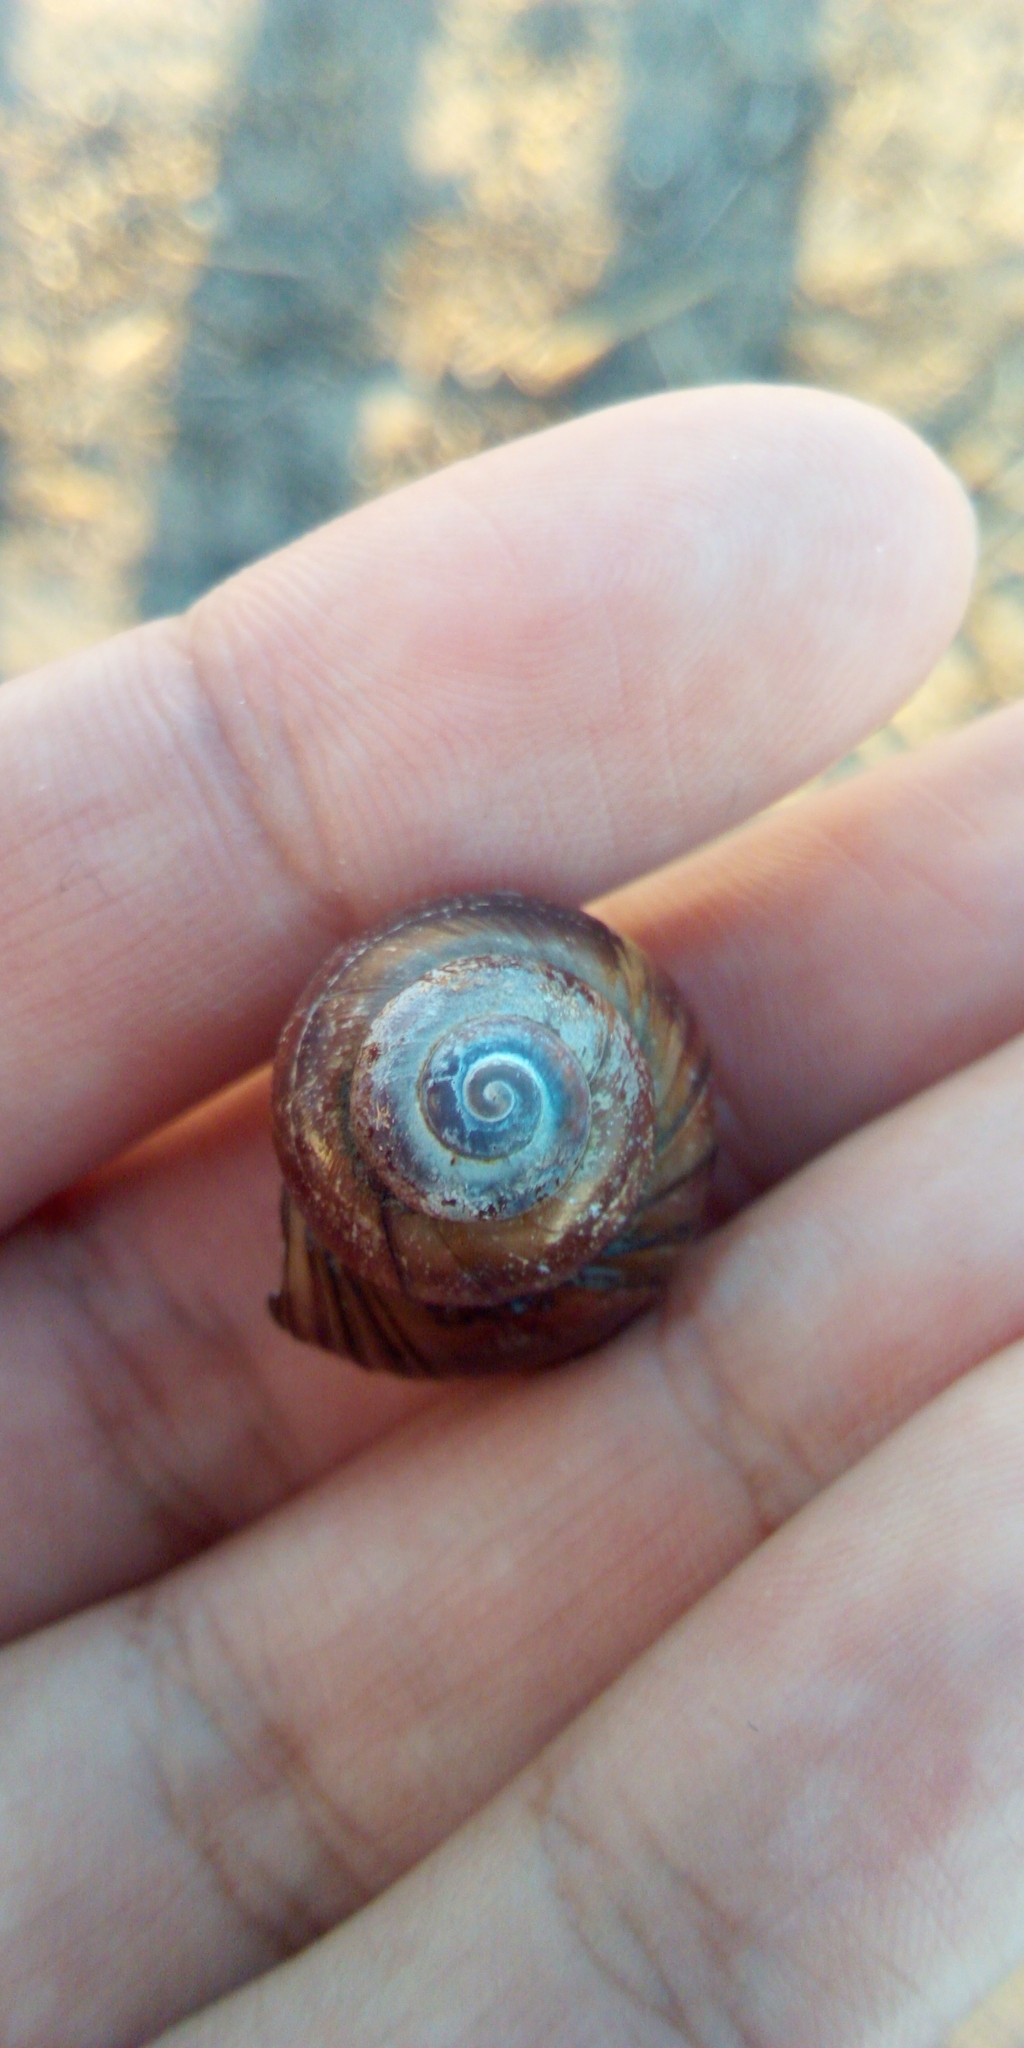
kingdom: Animalia
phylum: Mollusca
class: Gastropoda
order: Architaenioglossa
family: Viviparidae
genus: Viviparus
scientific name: Viviparus viviparus
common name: River snail
